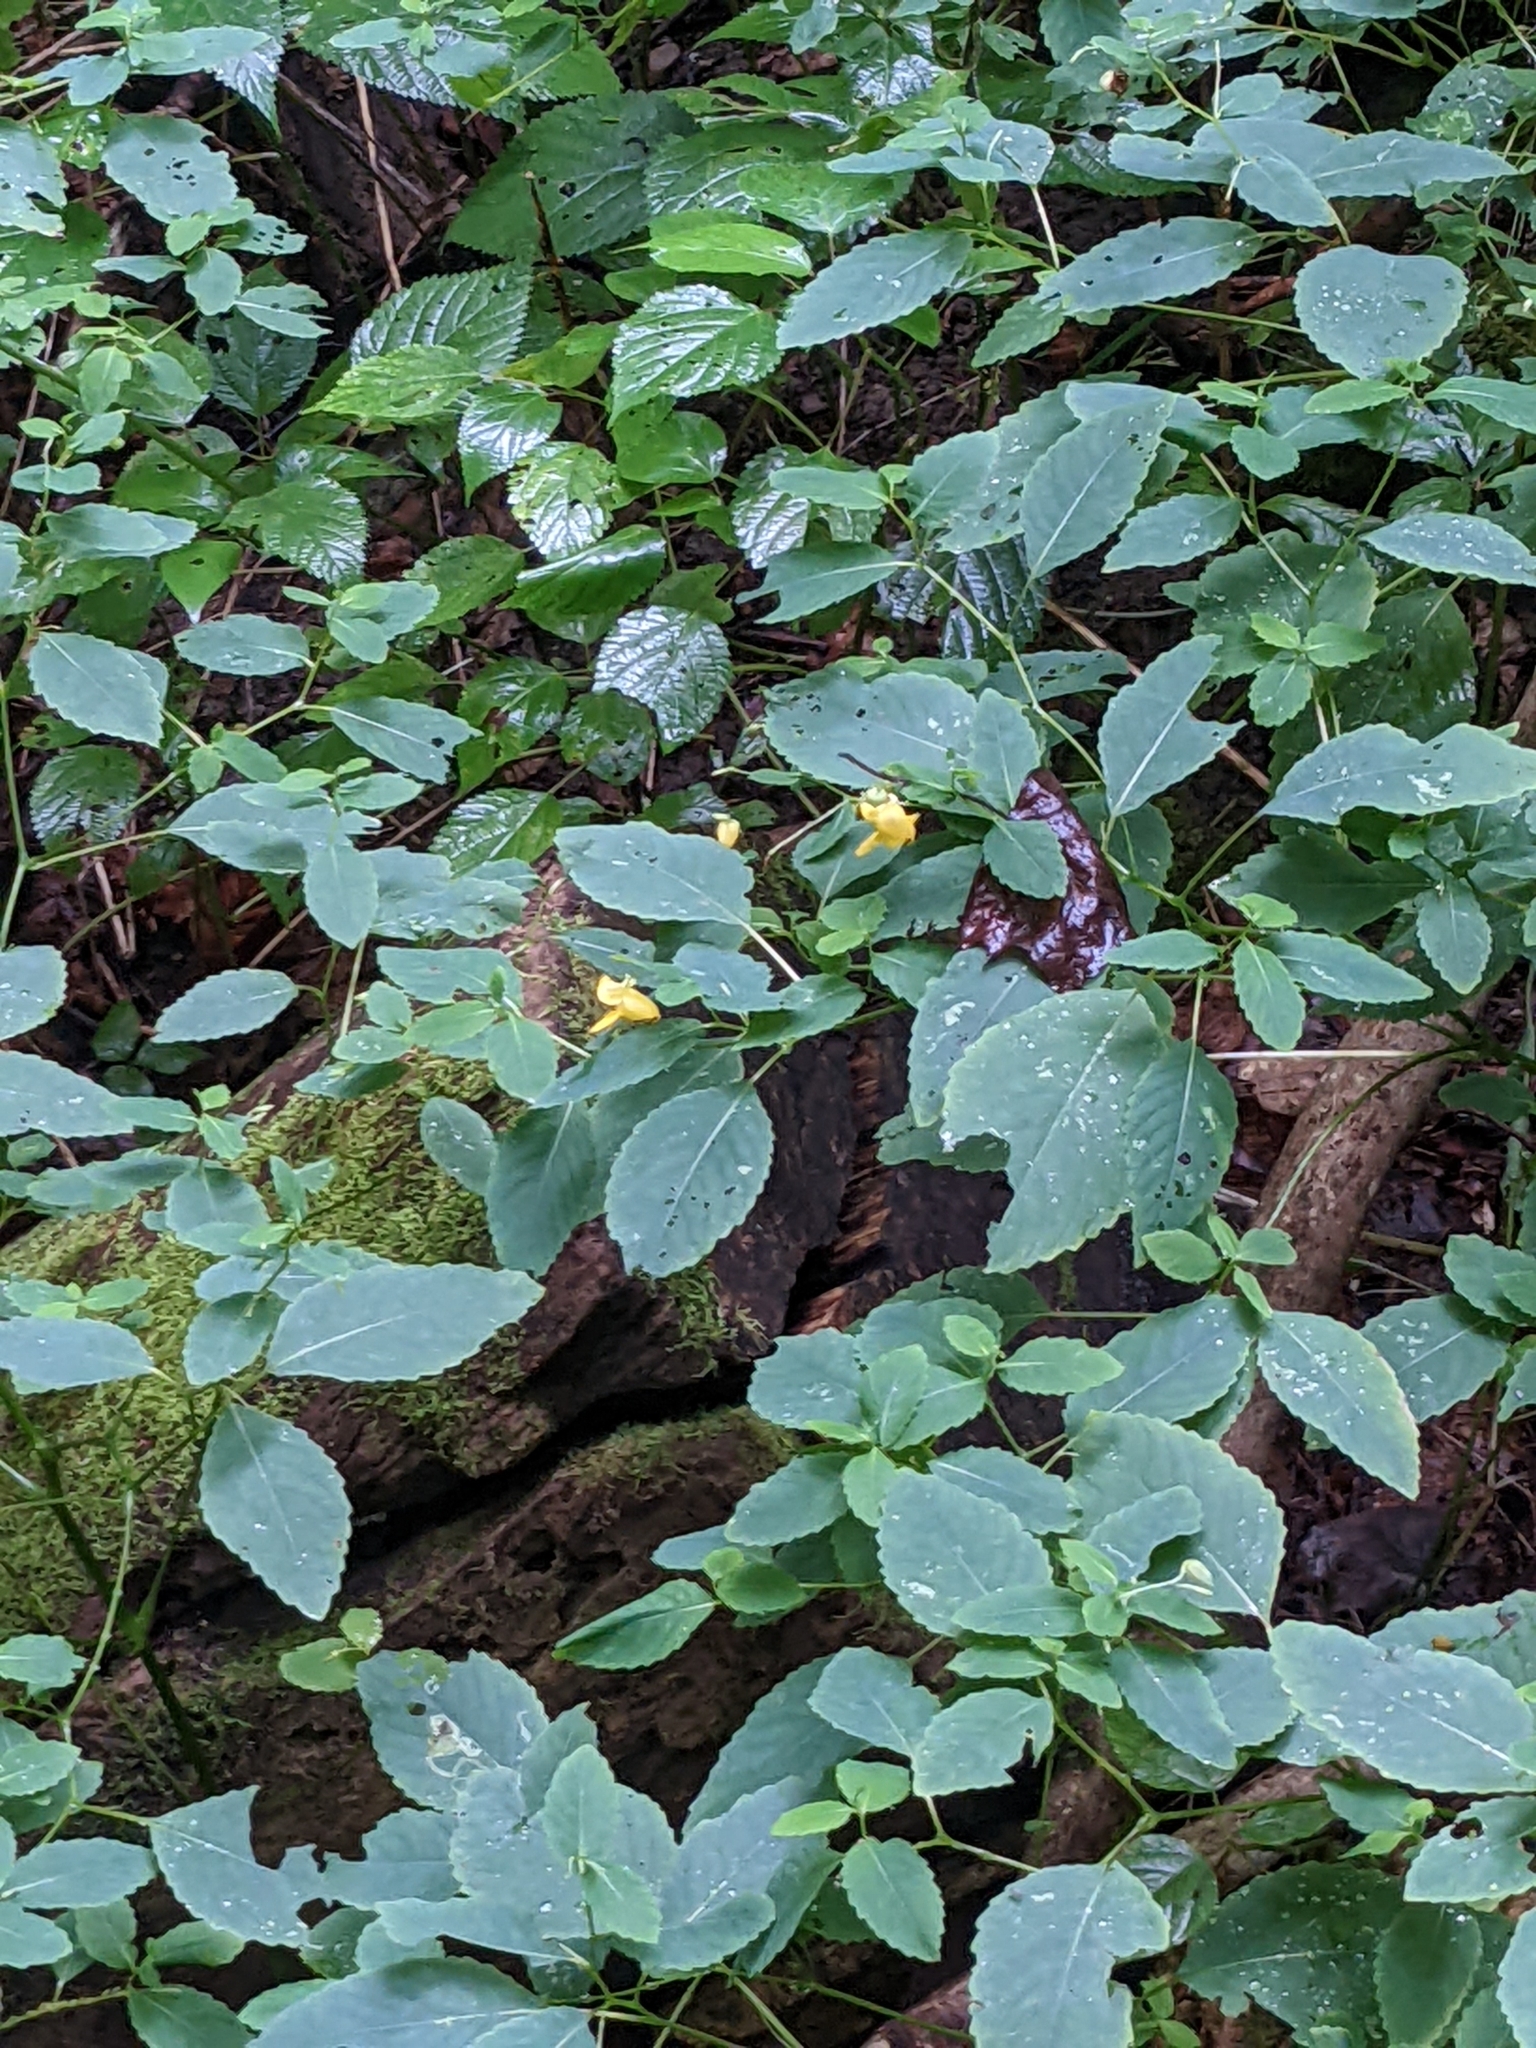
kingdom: Plantae
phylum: Tracheophyta
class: Magnoliopsida
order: Ericales
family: Balsaminaceae
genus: Impatiens
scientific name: Impatiens pallida
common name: Pale snapweed
